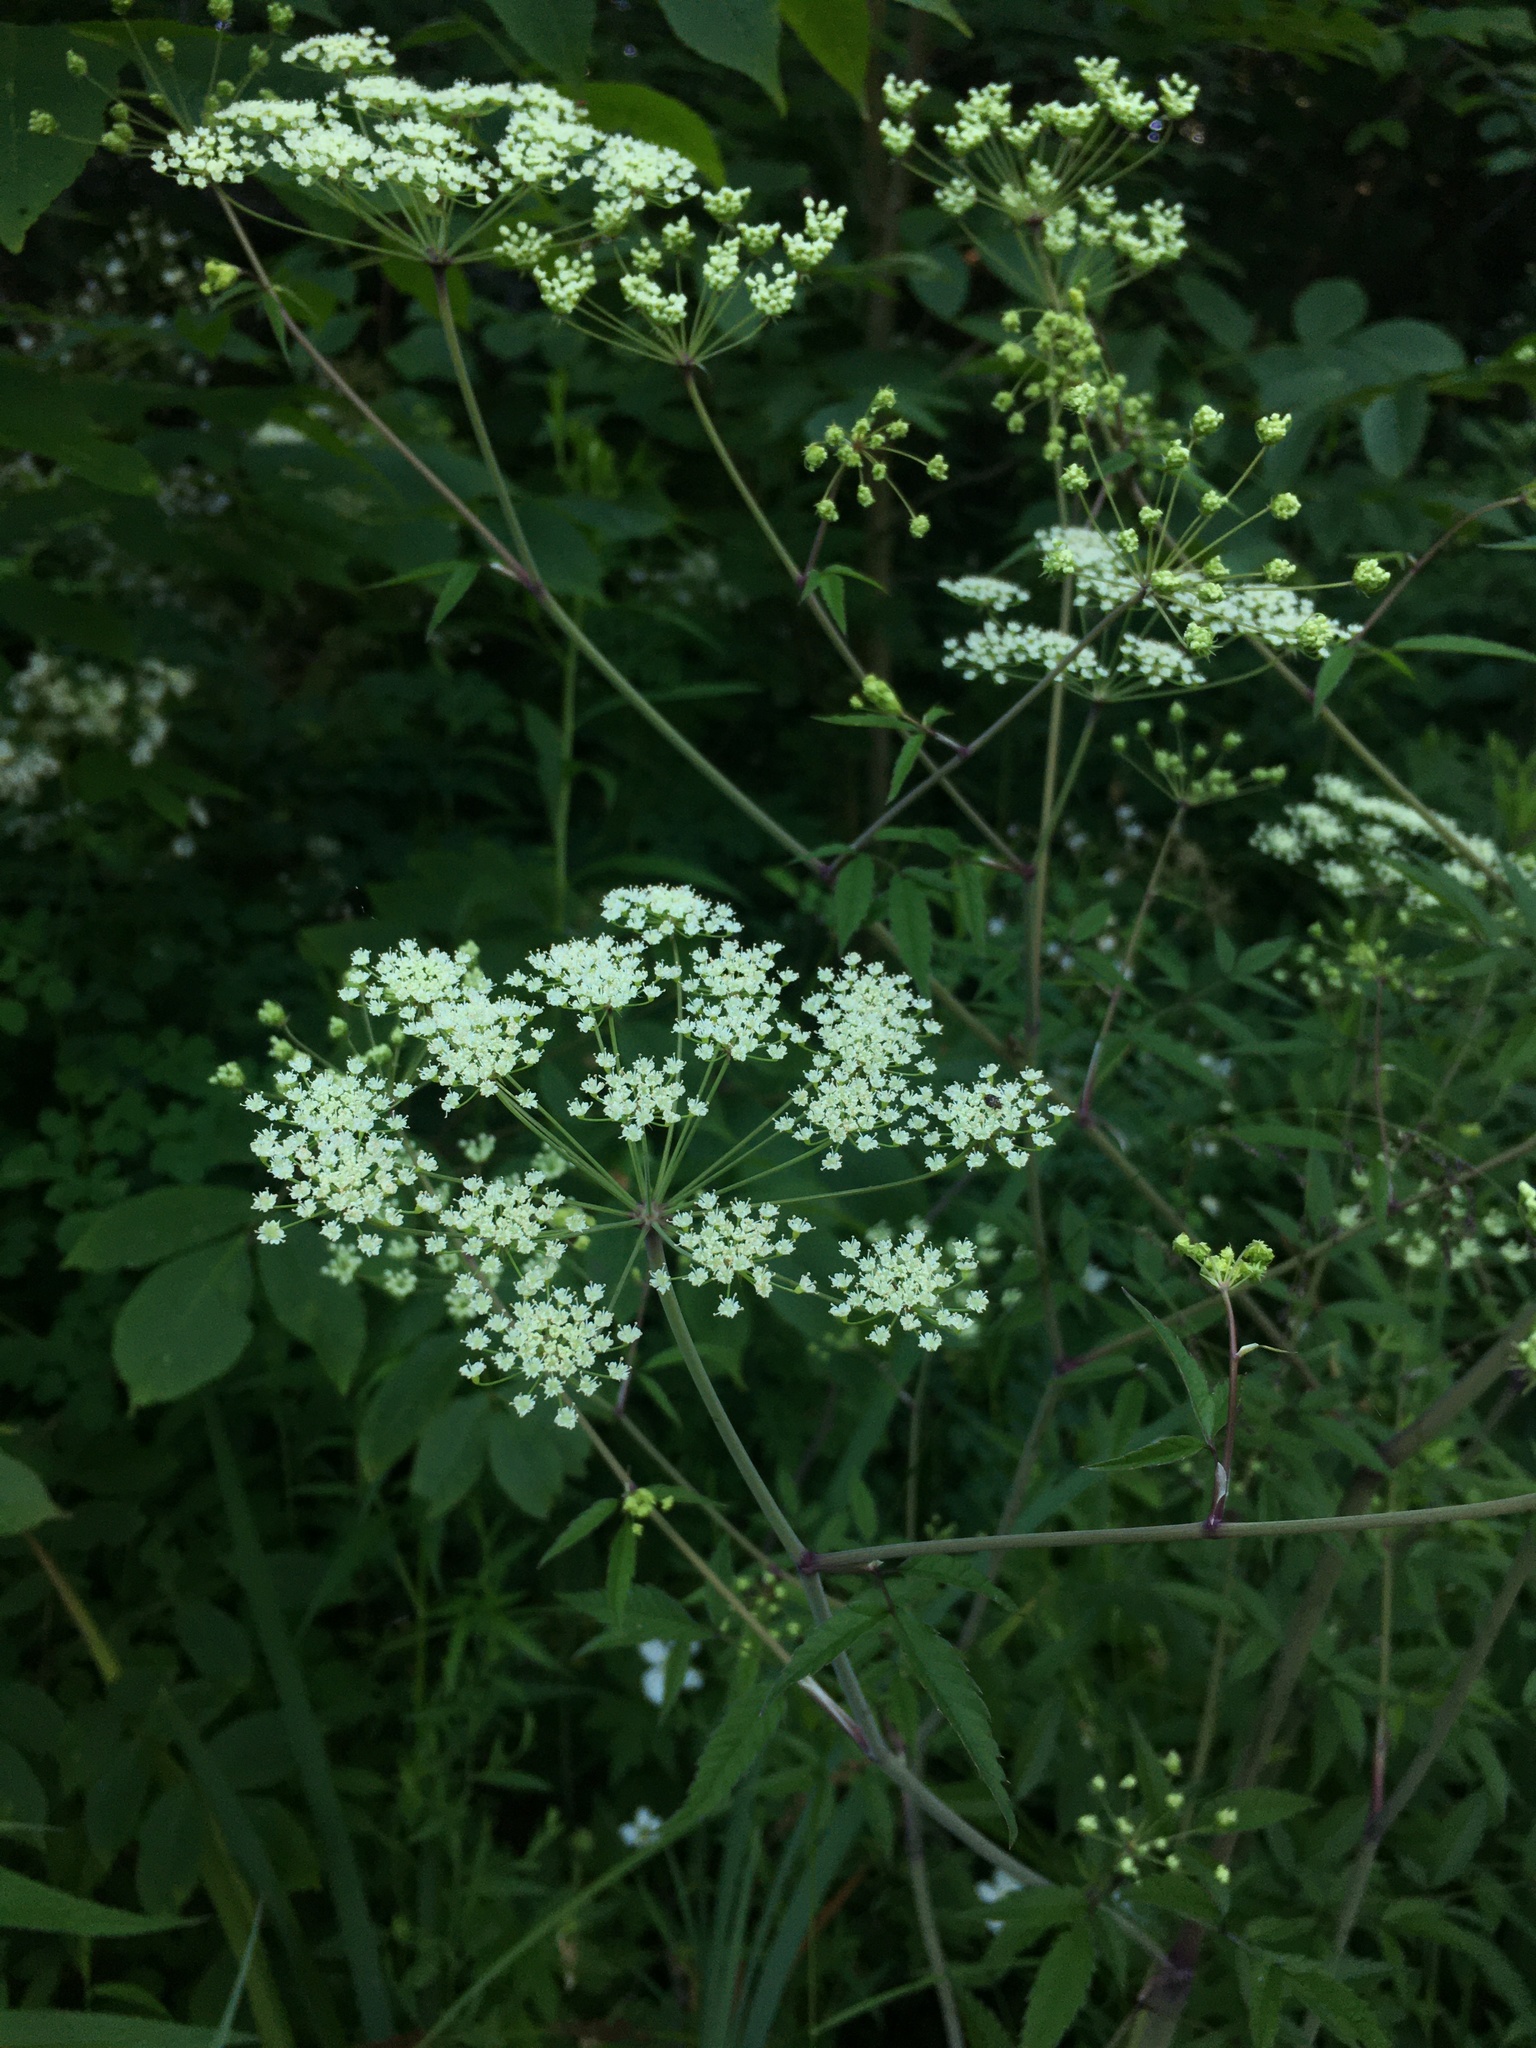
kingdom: Plantae
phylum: Tracheophyta
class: Magnoliopsida
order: Apiales
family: Apiaceae
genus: Cicuta
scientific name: Cicuta maculata
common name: Spotted cowbane
